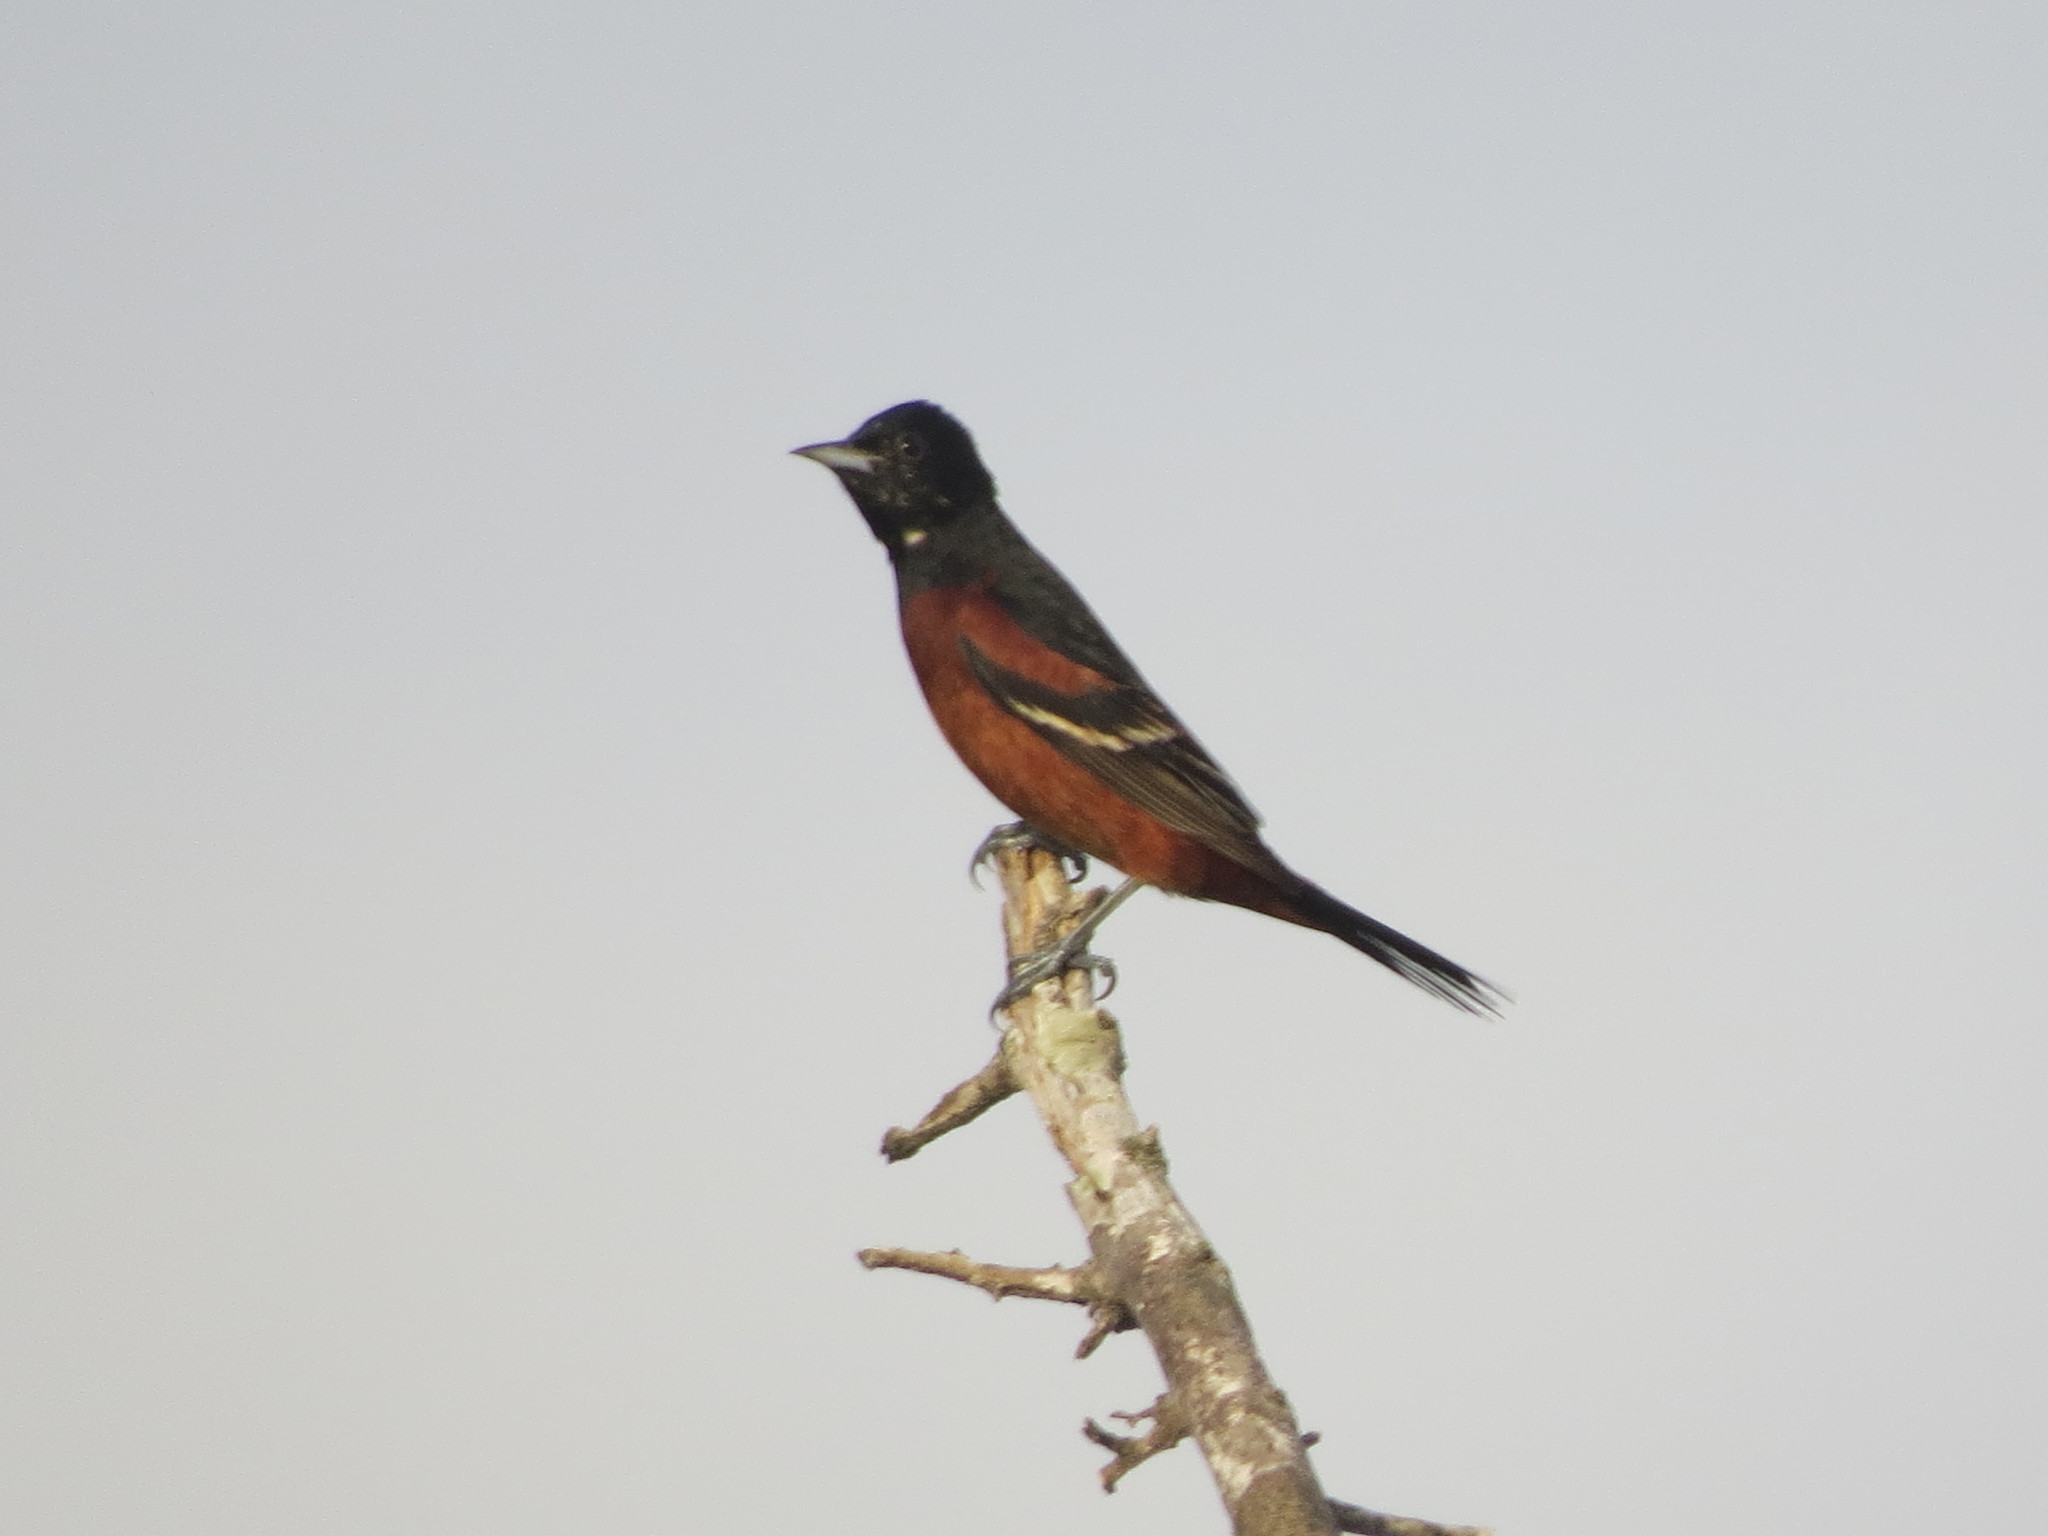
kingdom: Animalia
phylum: Chordata
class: Aves
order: Passeriformes
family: Icteridae
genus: Icterus
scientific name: Icterus spurius
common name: Orchard oriole
